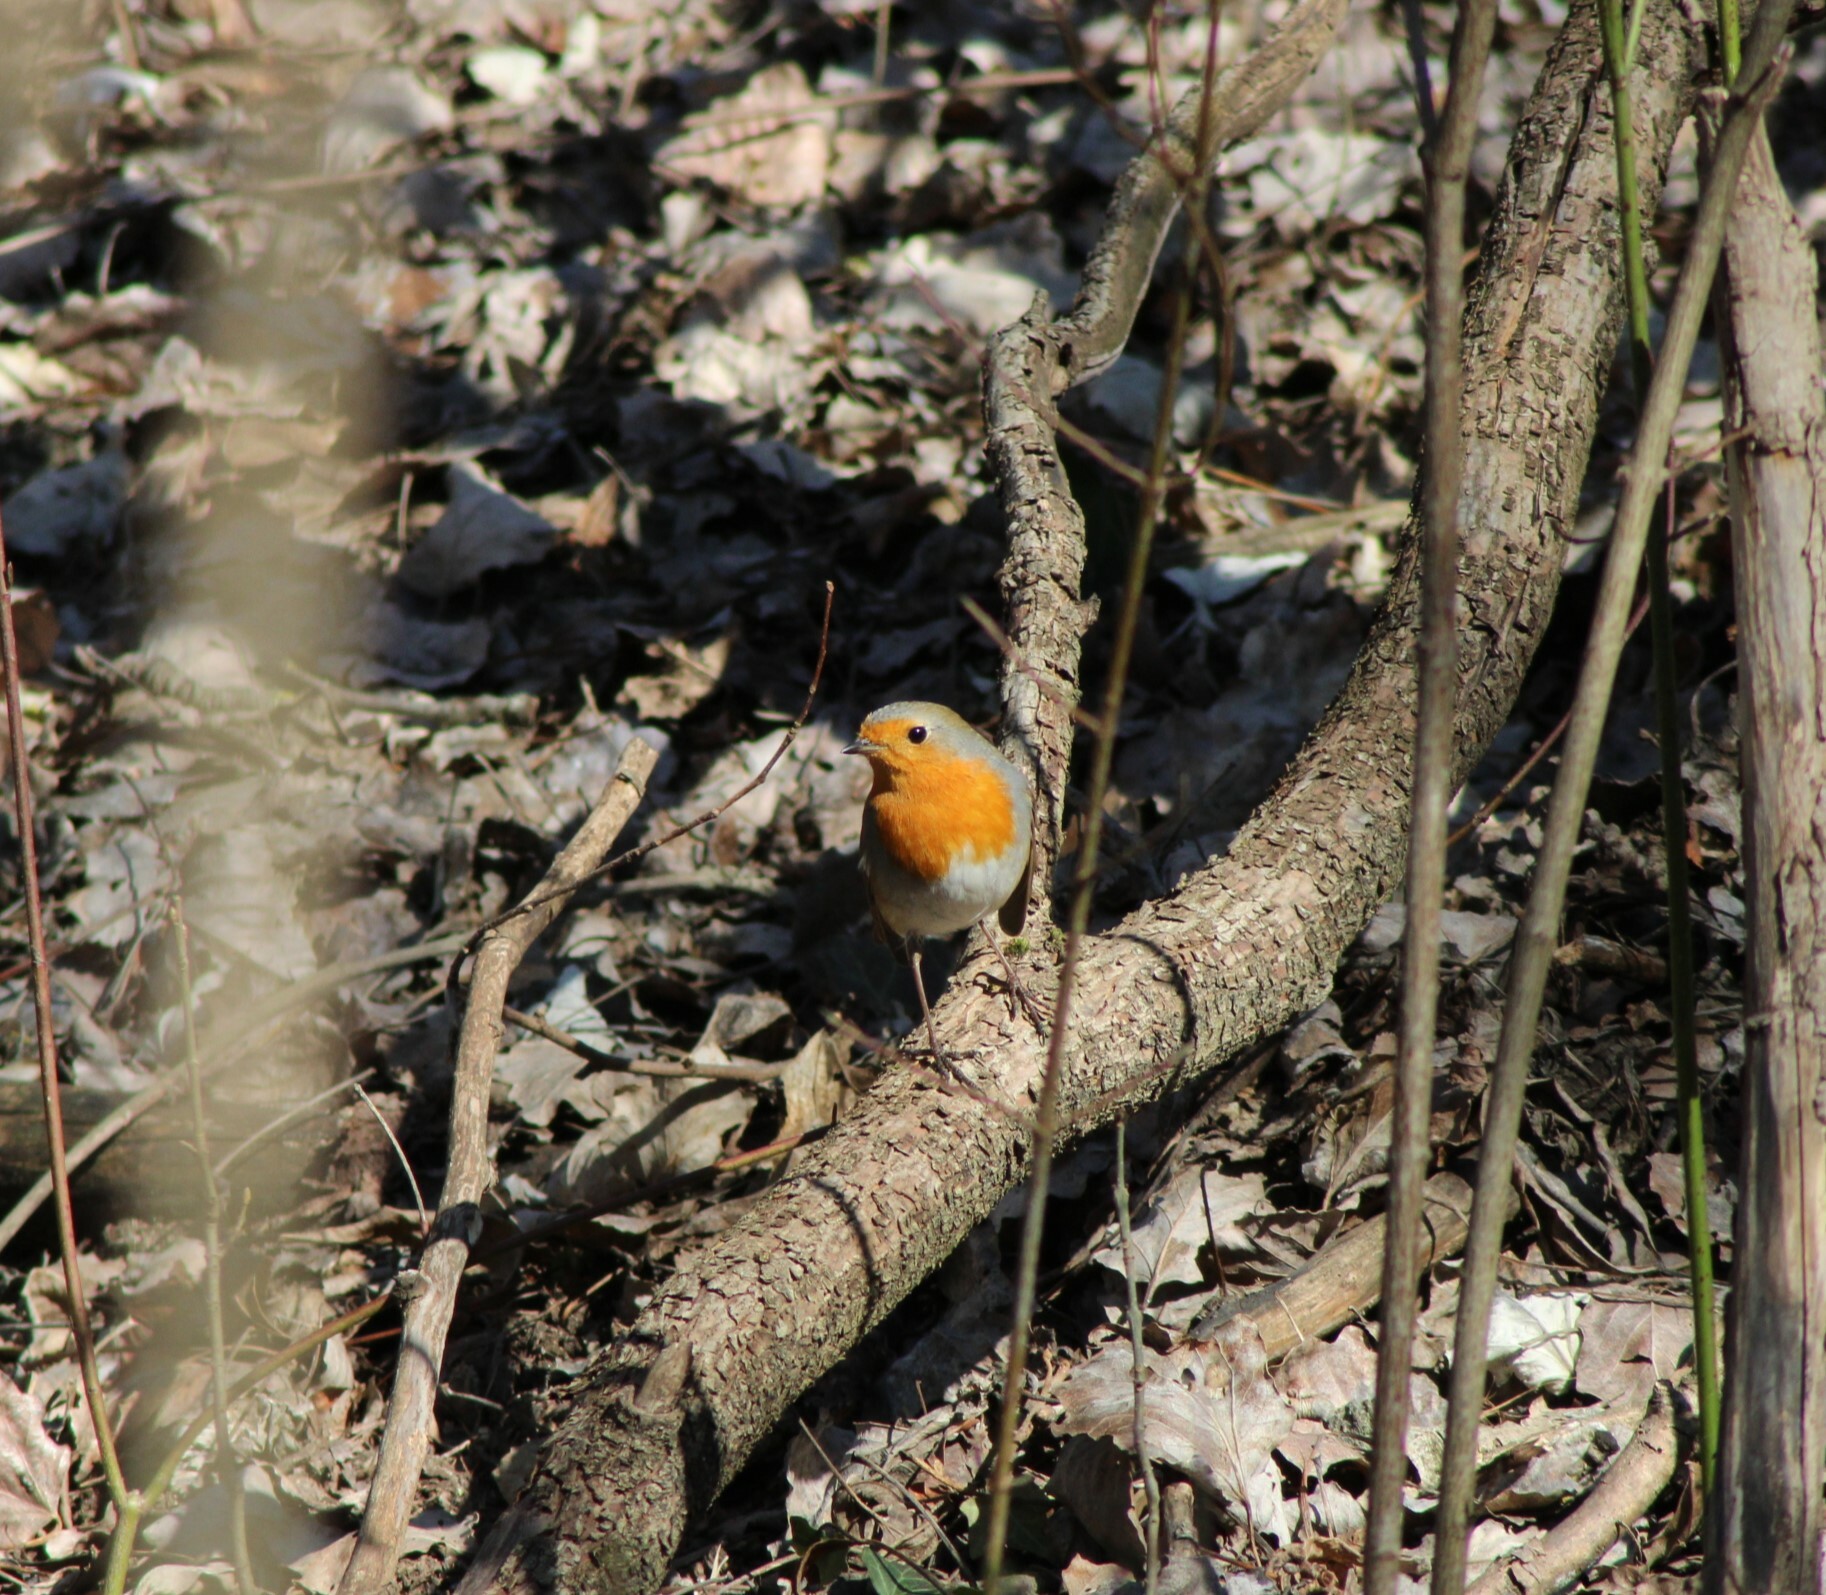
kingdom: Animalia
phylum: Chordata
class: Aves
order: Passeriformes
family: Muscicapidae
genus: Erithacus
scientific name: Erithacus rubecula
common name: European robin
